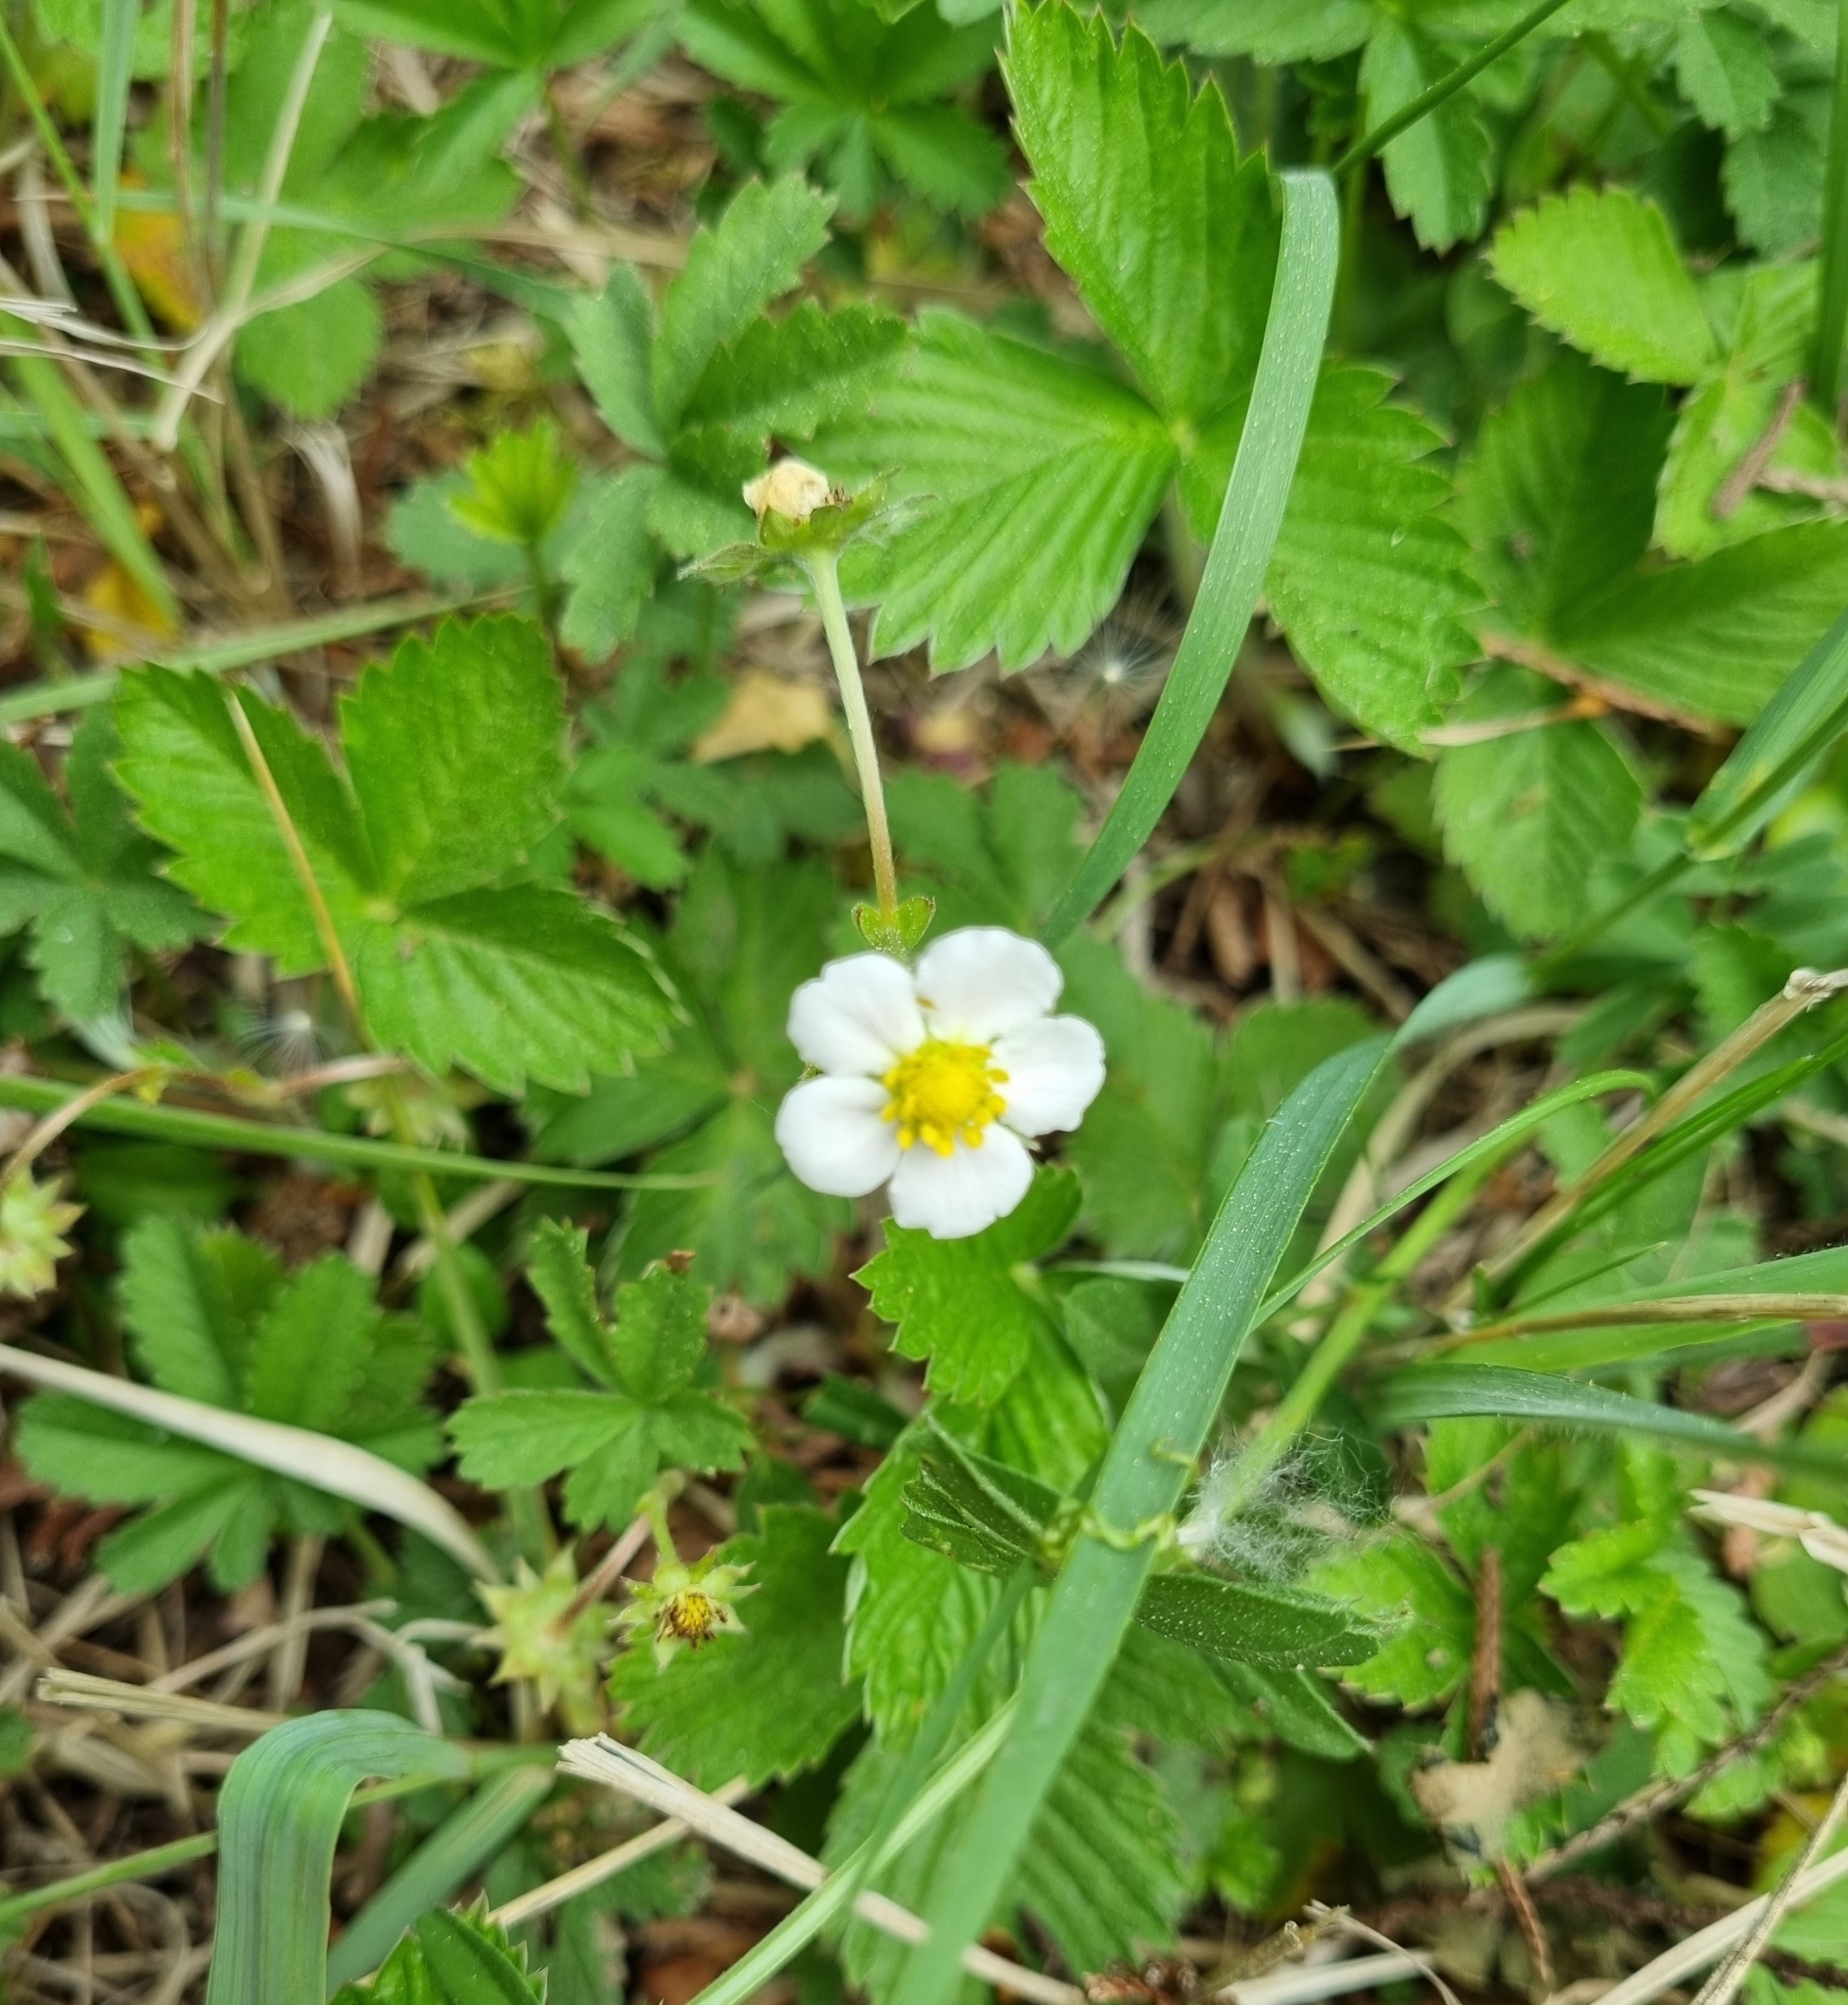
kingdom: Plantae
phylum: Tracheophyta
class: Magnoliopsida
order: Rosales
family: Rosaceae
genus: Fragaria
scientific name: Fragaria vesca
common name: Wild strawberry
